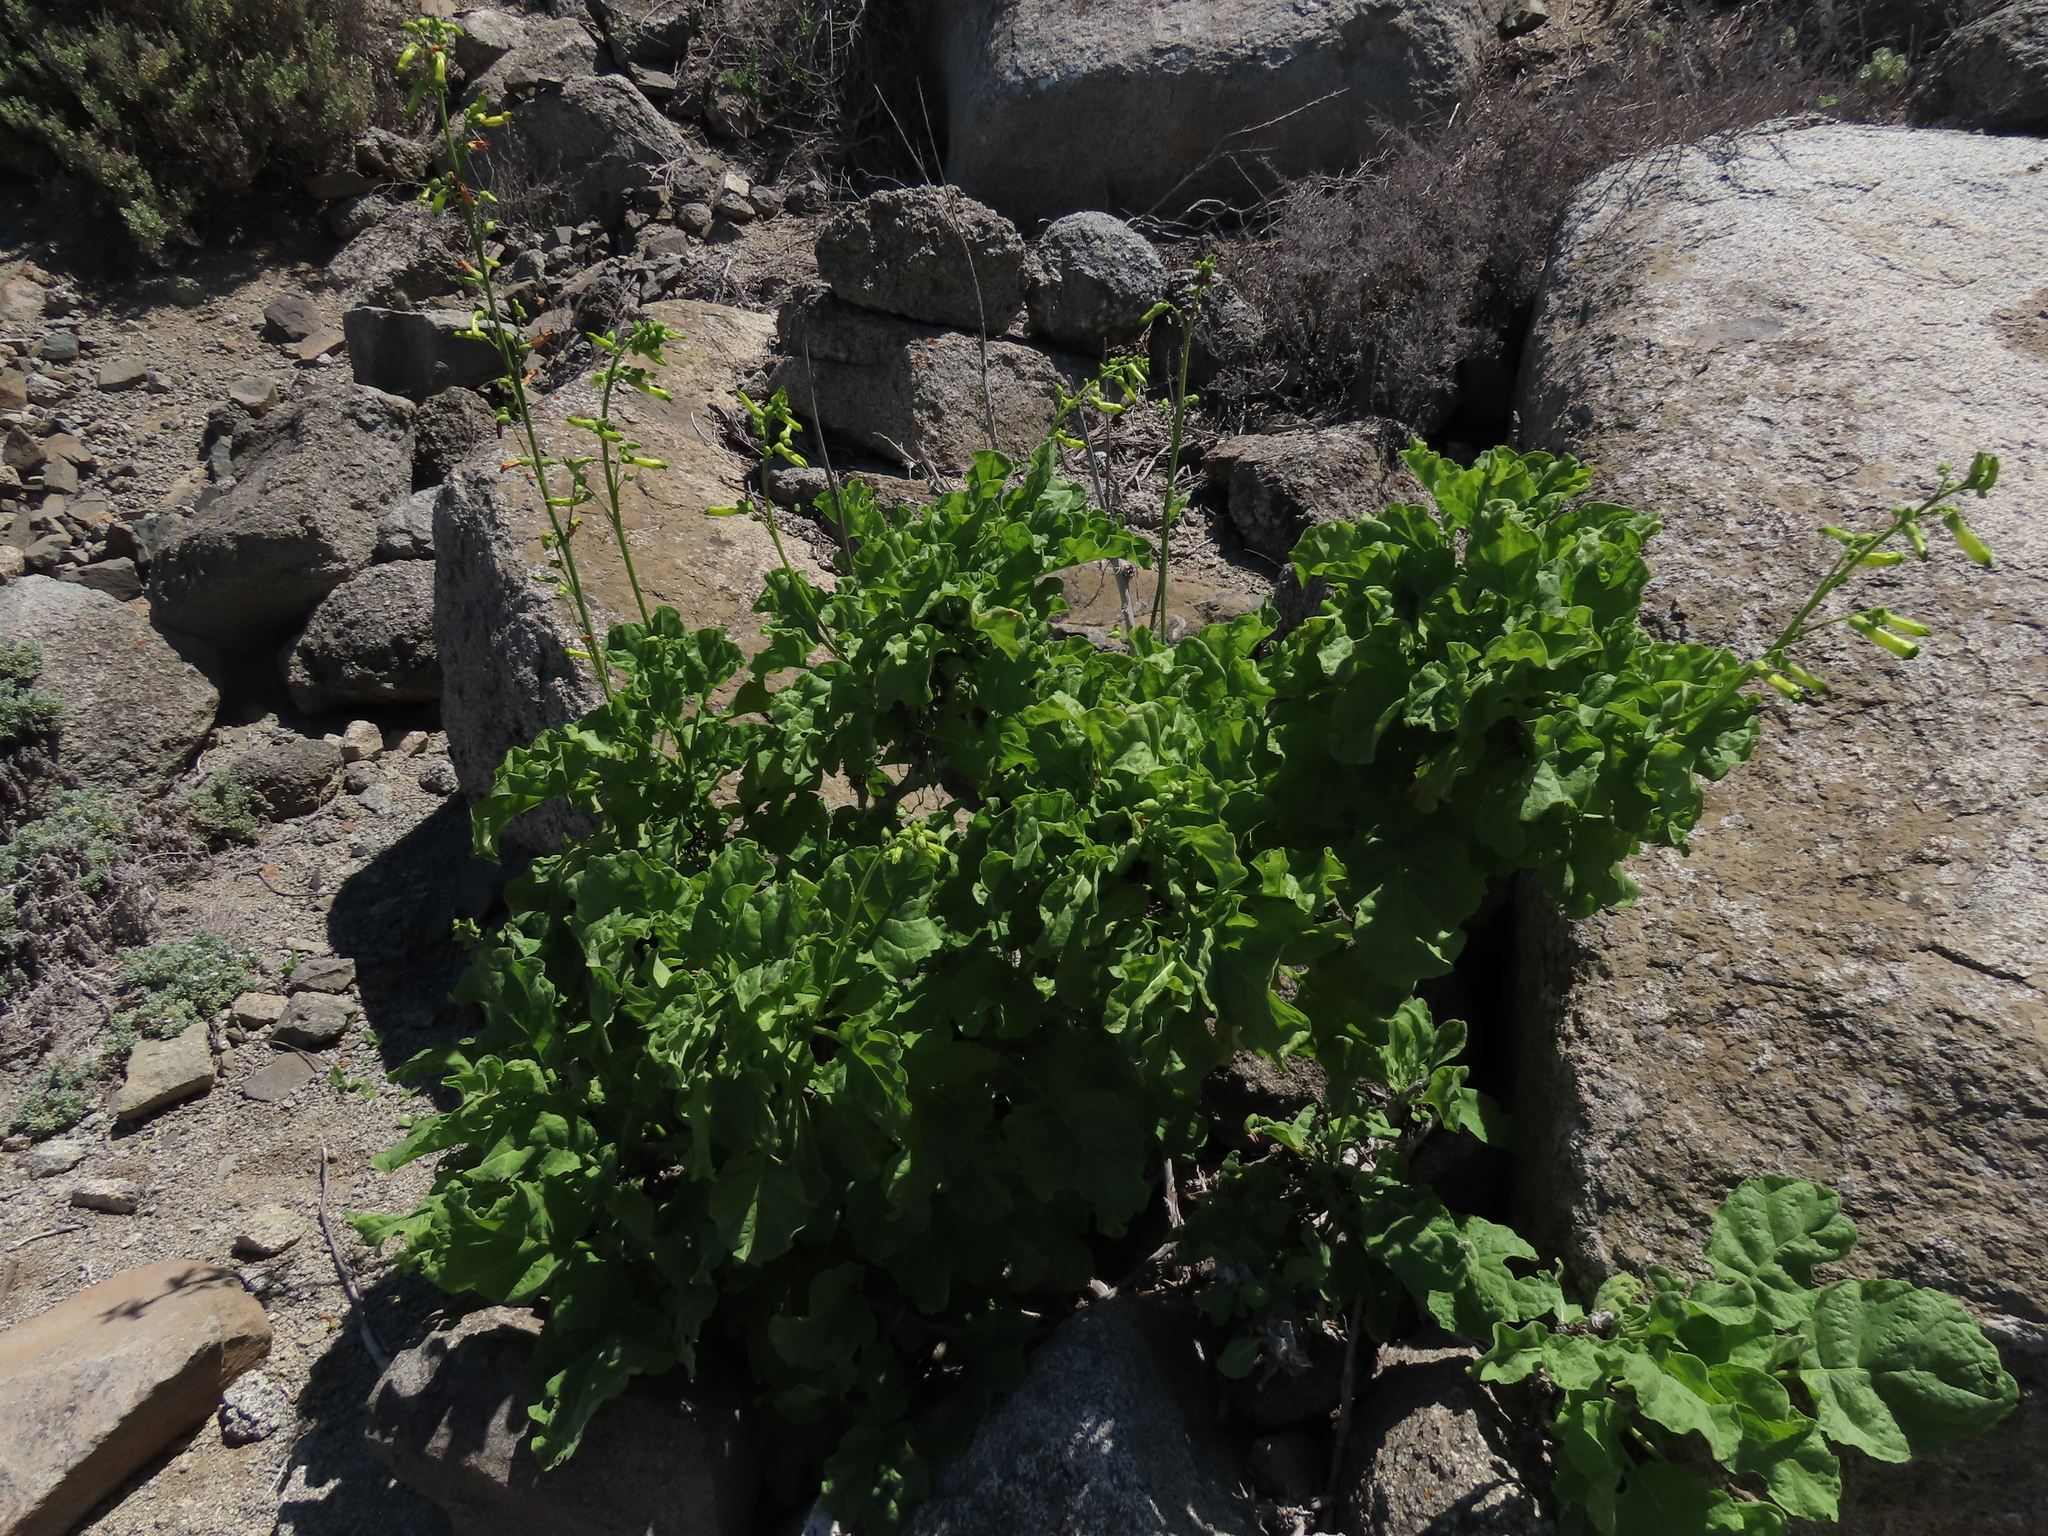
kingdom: Plantae
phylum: Tracheophyta
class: Magnoliopsida
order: Solanales
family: Solanaceae
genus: Nicotiana
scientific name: Nicotiana solanifolia
